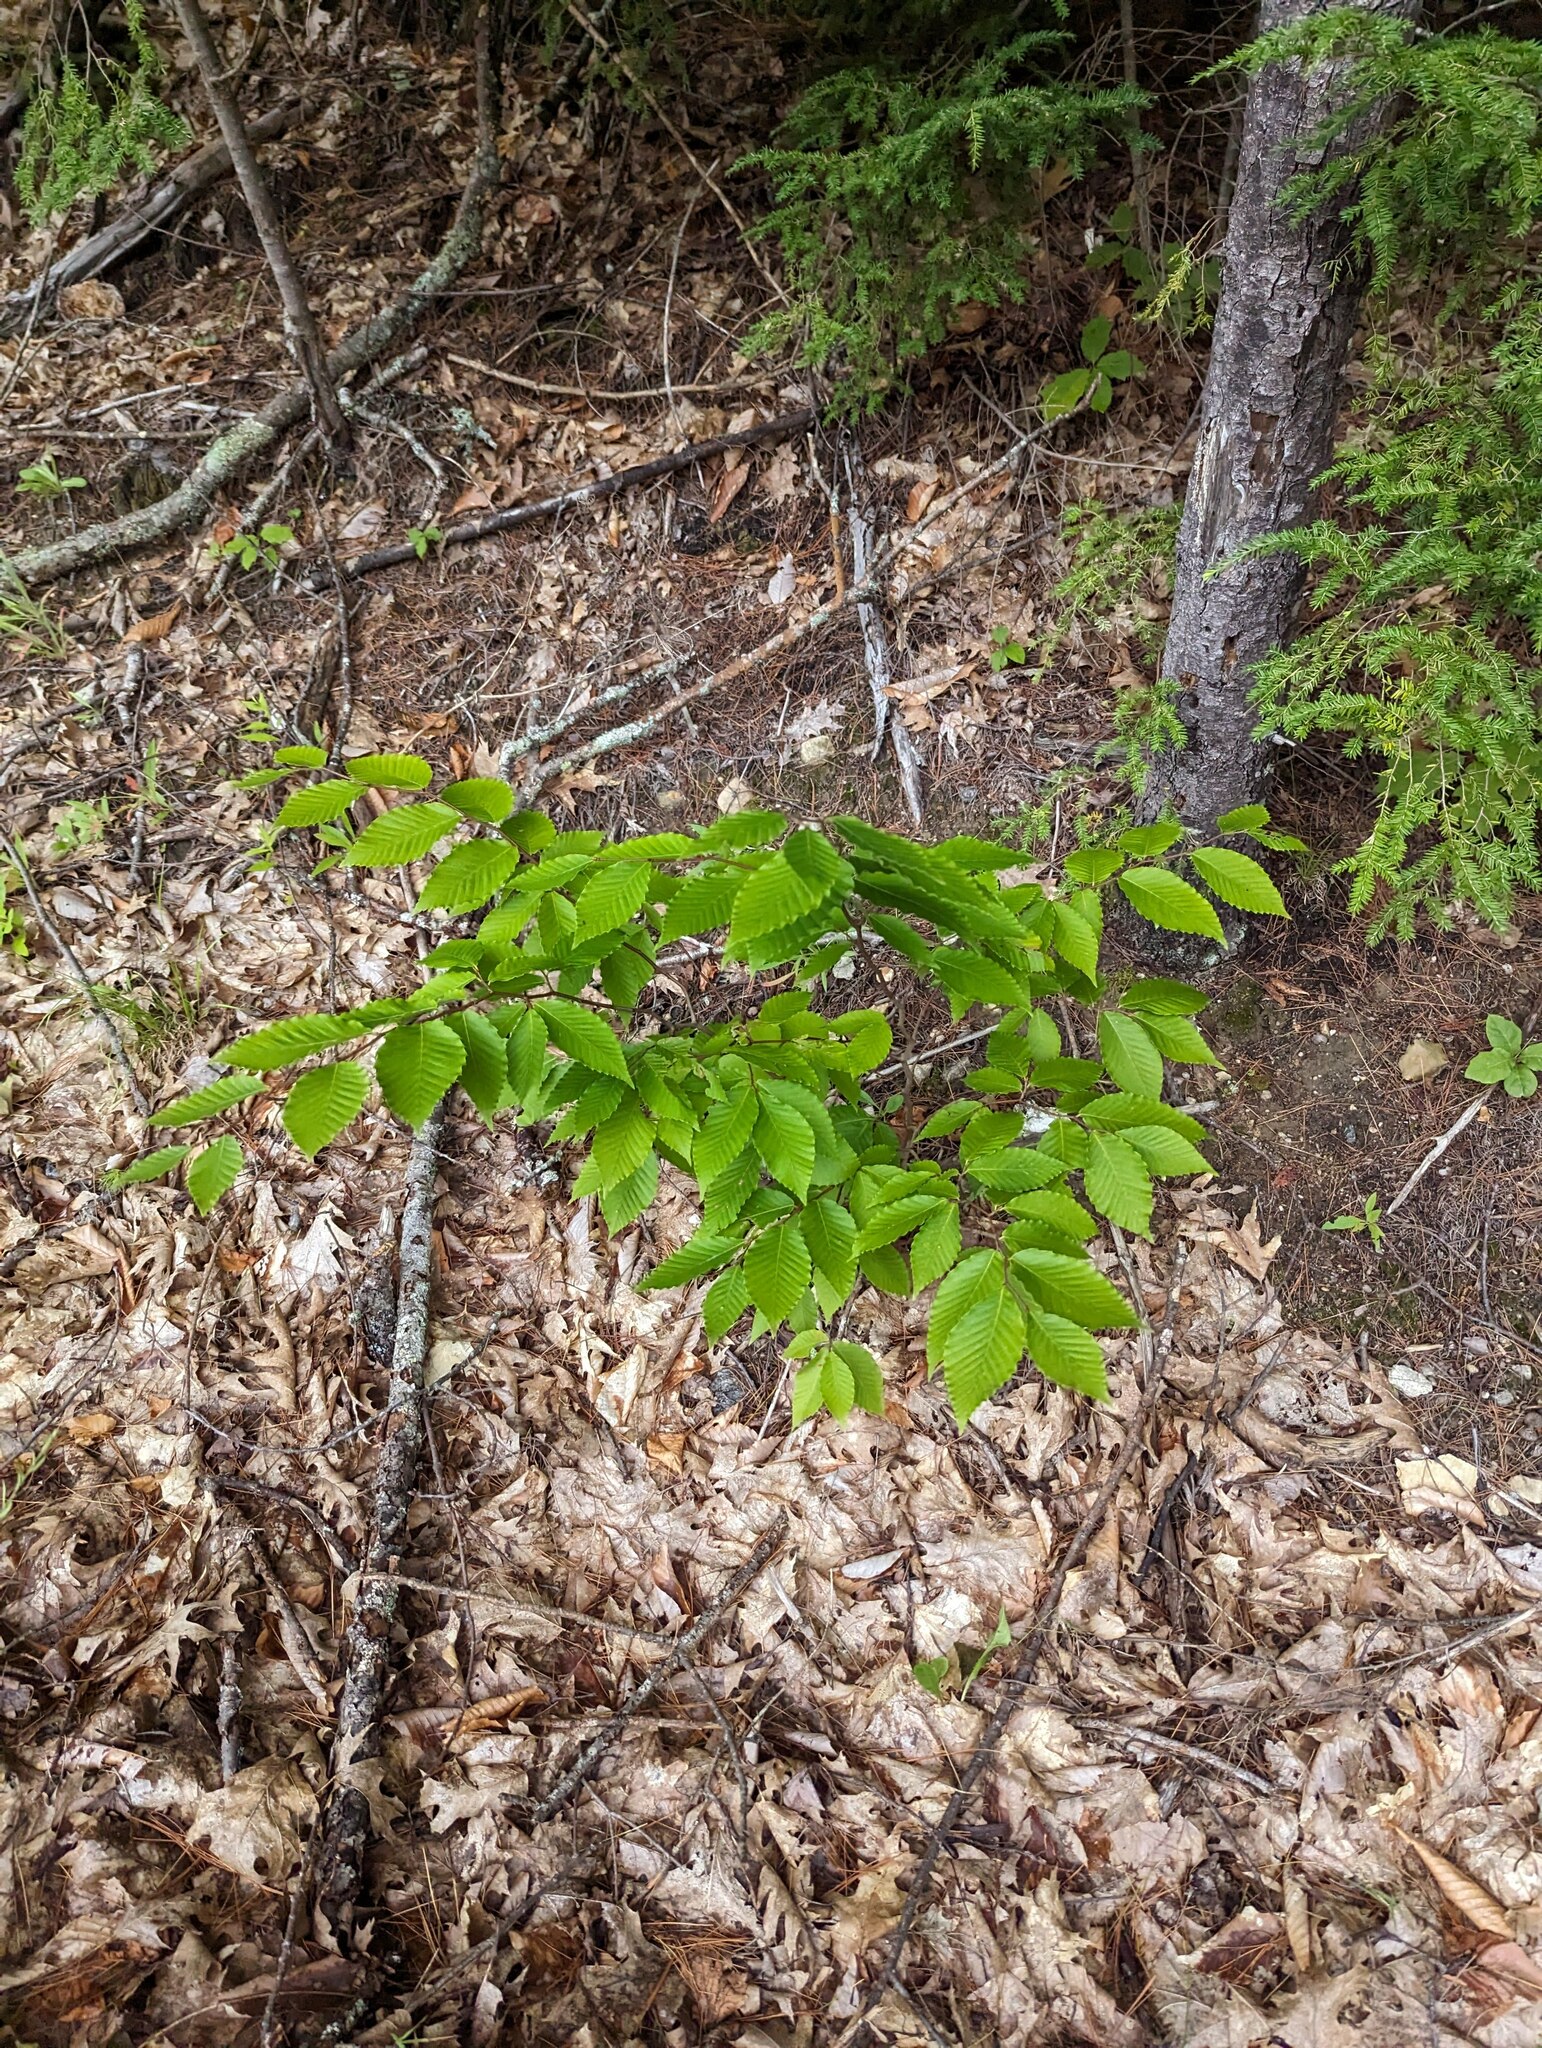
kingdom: Plantae
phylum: Tracheophyta
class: Magnoliopsida
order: Fagales
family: Fagaceae
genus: Fagus
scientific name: Fagus grandifolia
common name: American beech
